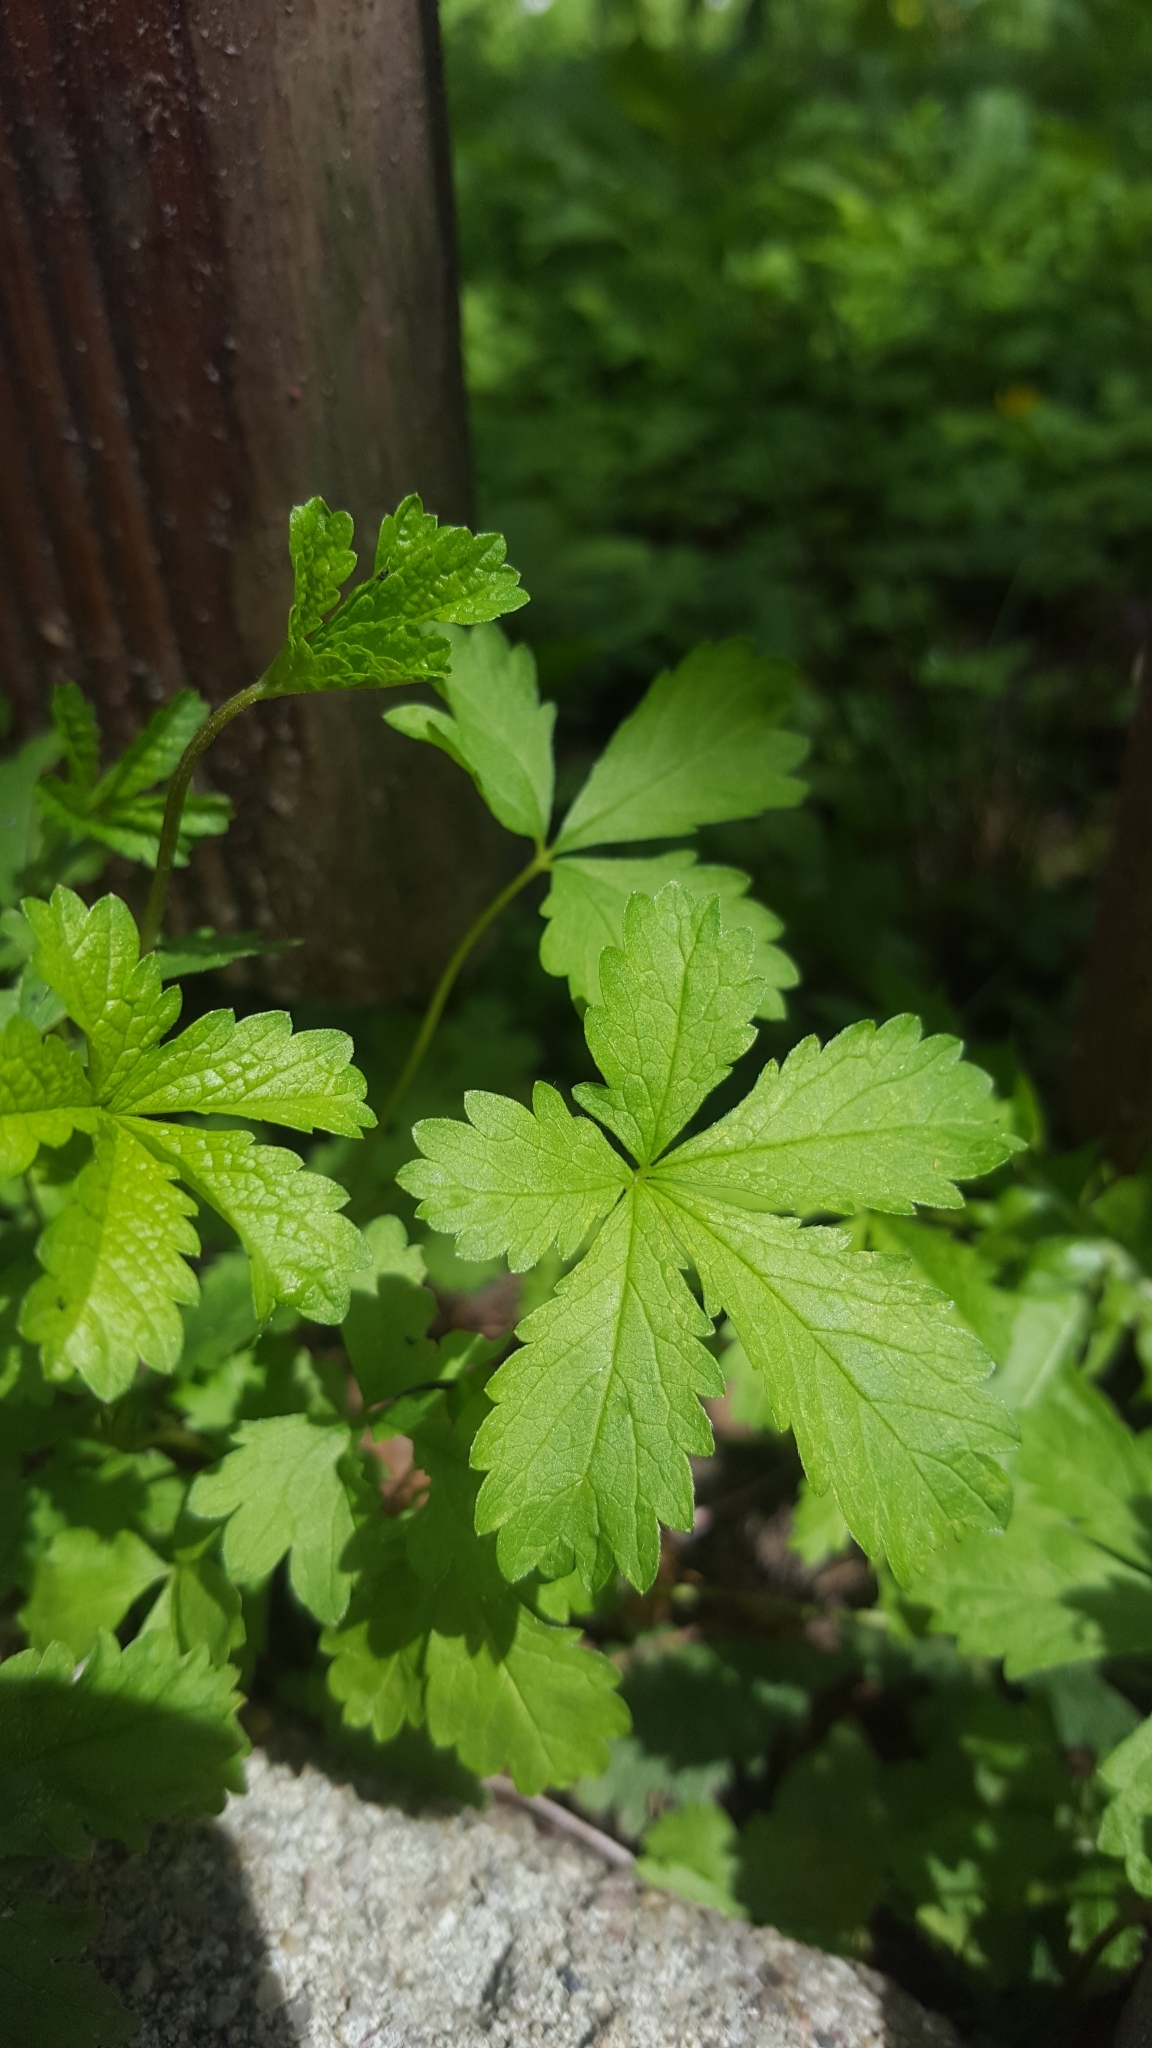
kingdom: Plantae
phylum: Tracheophyta
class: Magnoliopsida
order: Rosales
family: Rosaceae
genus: Potentilla
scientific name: Potentilla reptans
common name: Creeping cinquefoil
